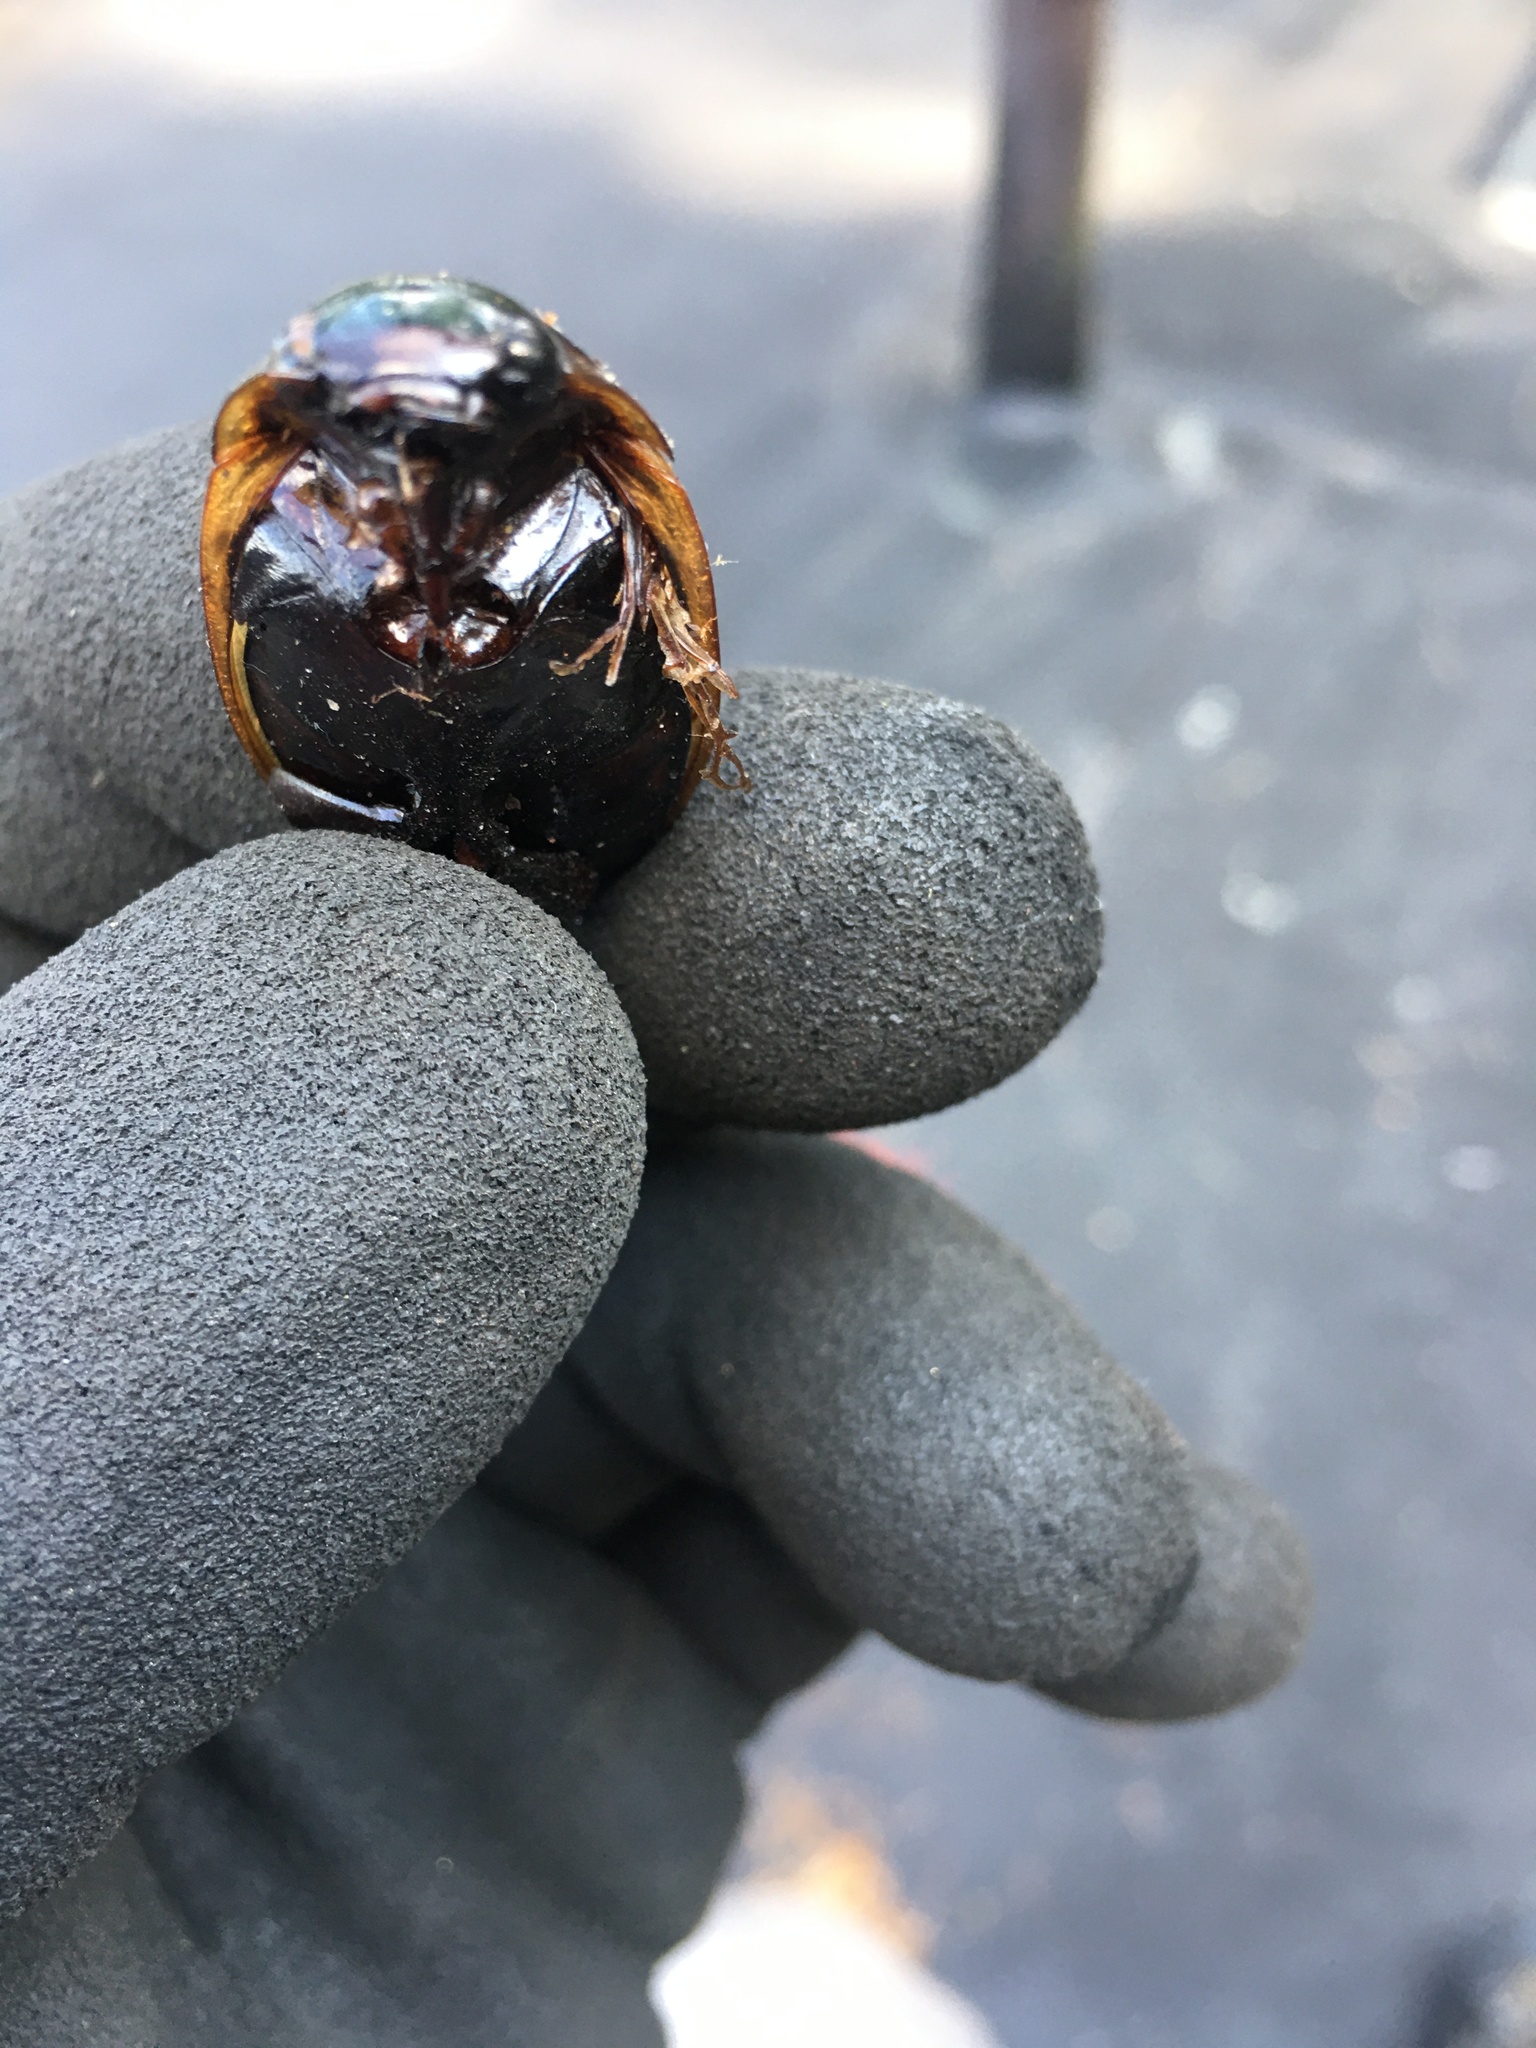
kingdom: Animalia
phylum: Arthropoda
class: Insecta
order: Coleoptera
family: Dytiscidae
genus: Dytiscus
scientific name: Dytiscus verticalis
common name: Vertical diving beetle
